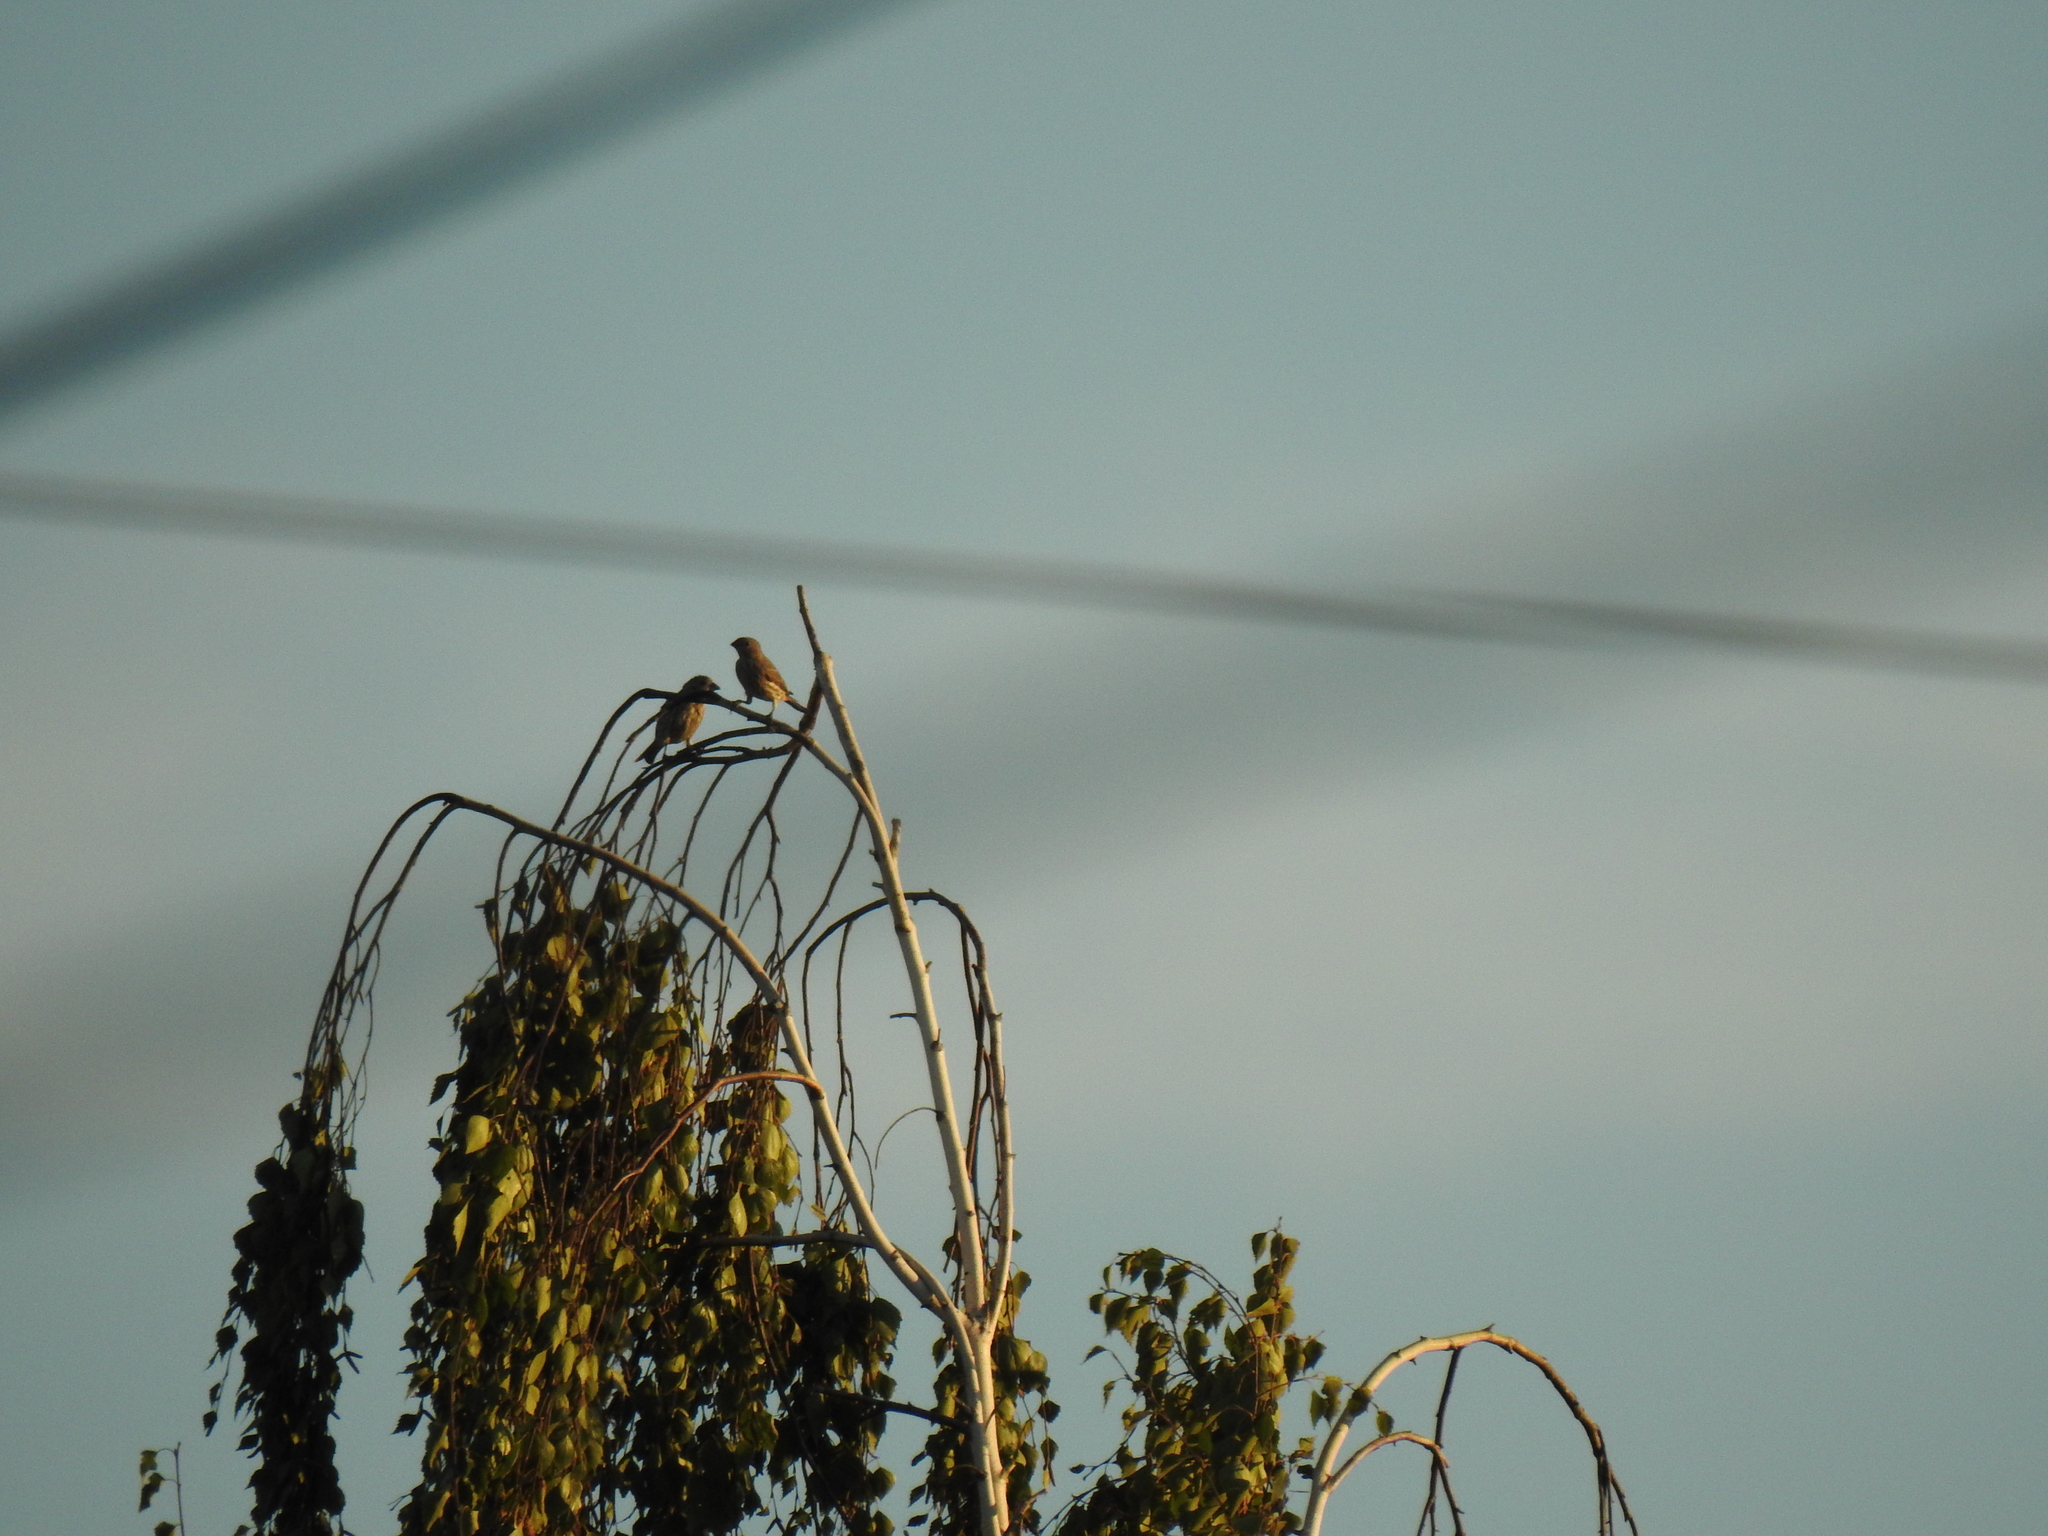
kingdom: Animalia
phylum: Chordata
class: Aves
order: Passeriformes
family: Fringillidae
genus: Haemorhous
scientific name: Haemorhous mexicanus
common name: House finch
